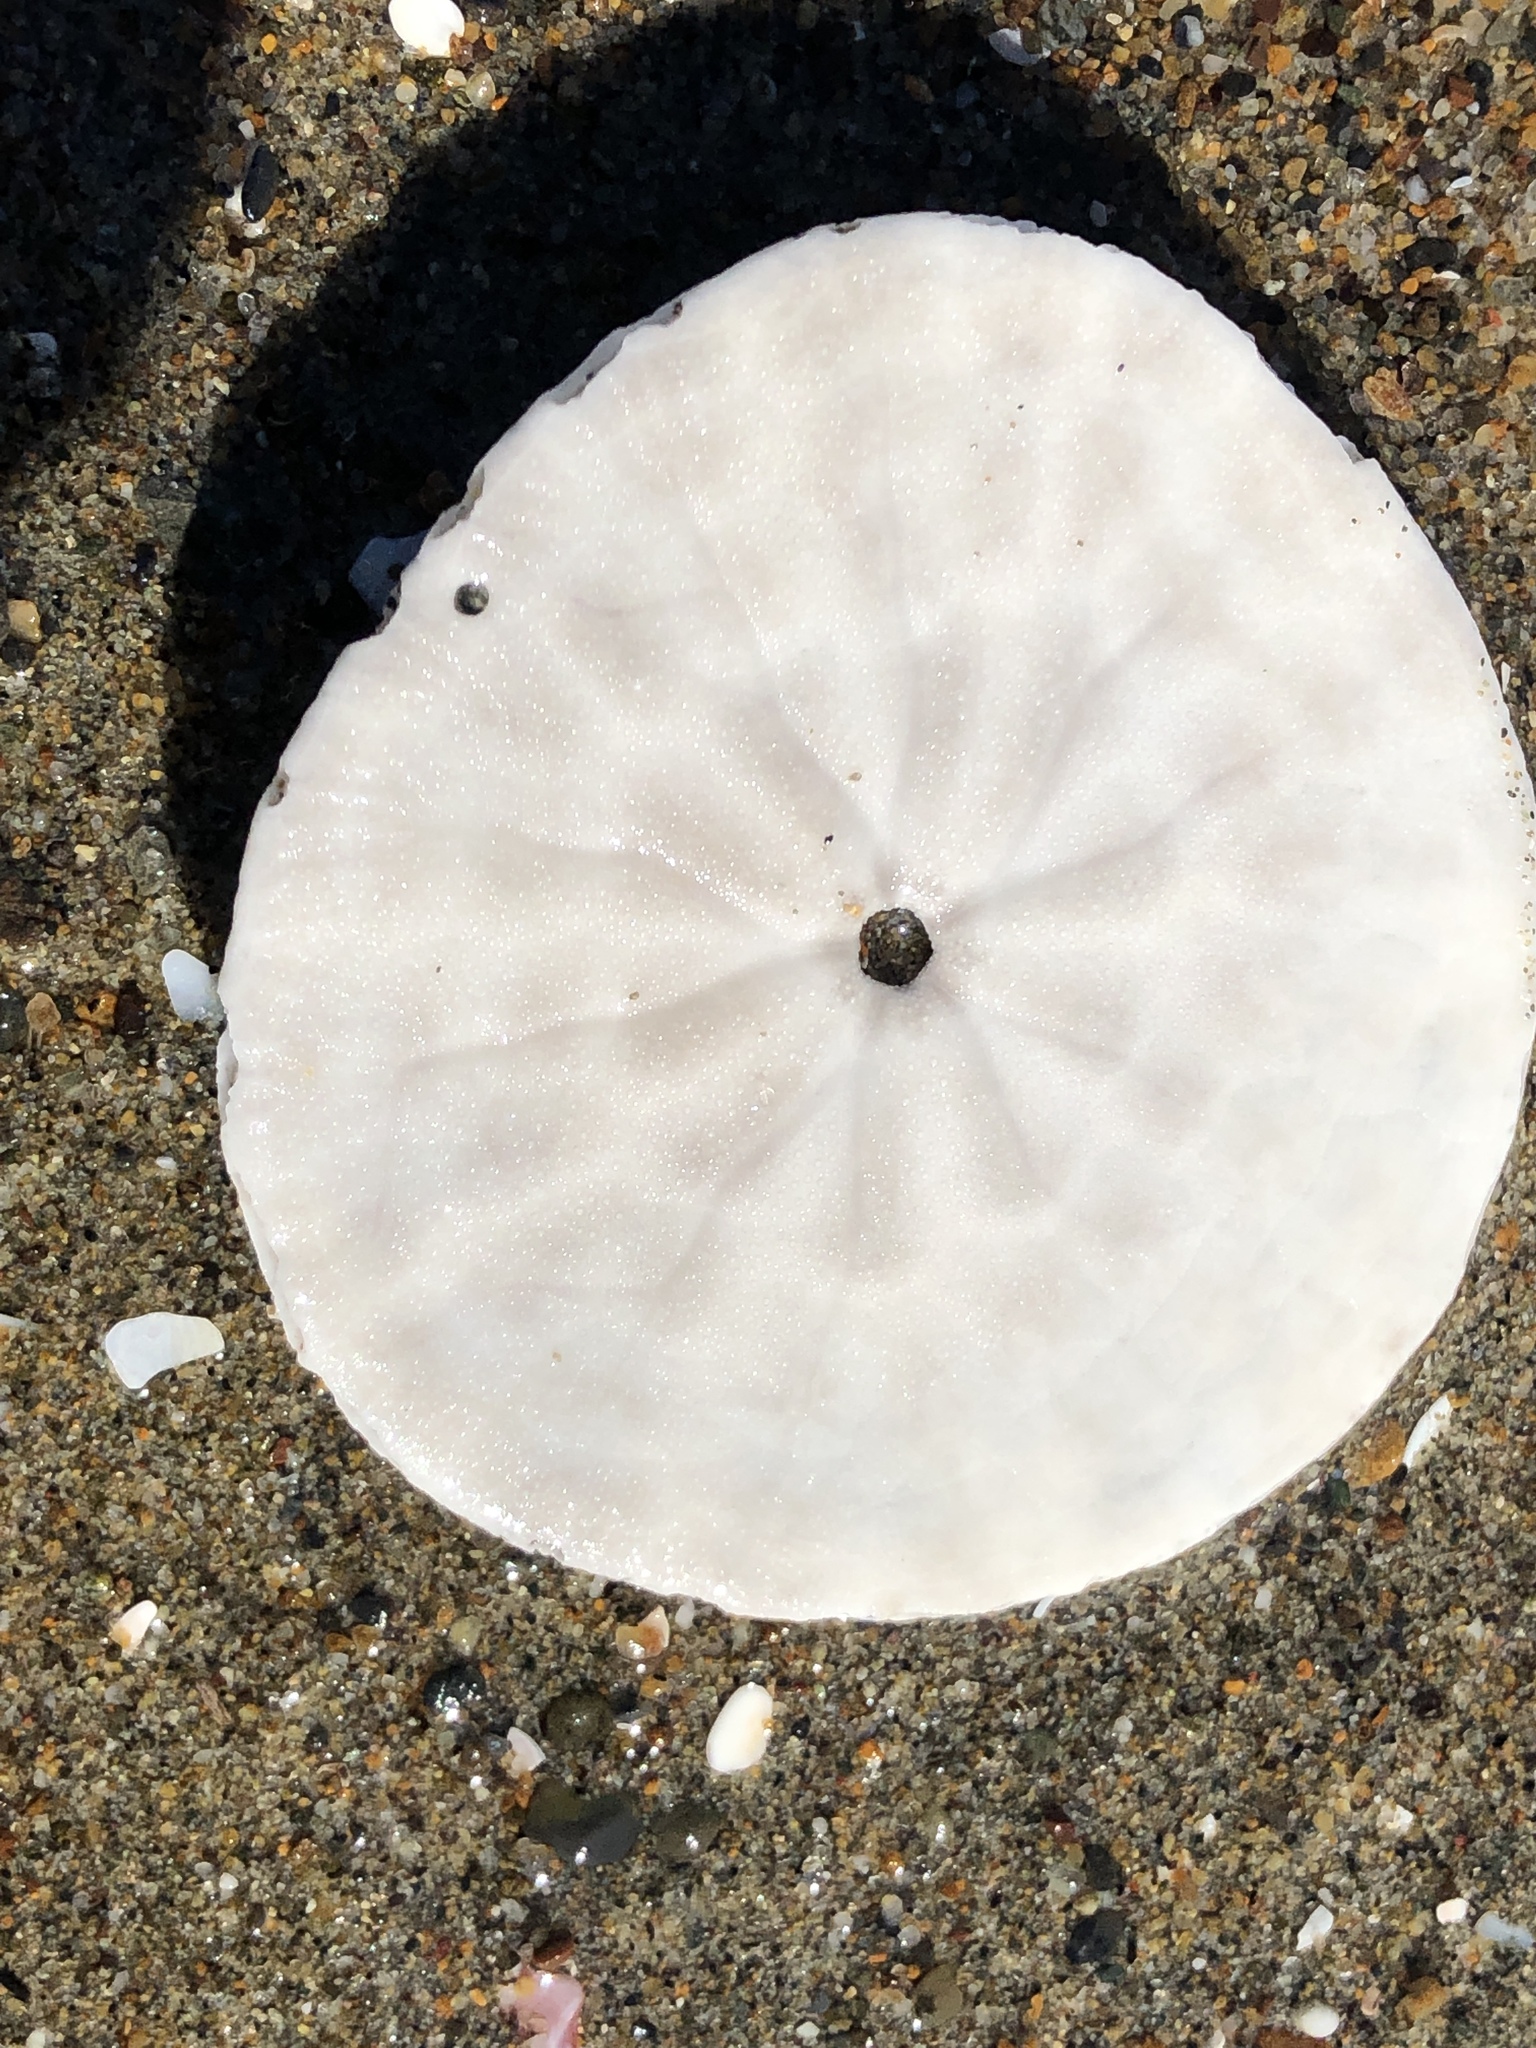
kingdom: Animalia
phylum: Echinodermata
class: Echinoidea
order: Echinolampadacea
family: Dendrasteridae
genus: Dendraster
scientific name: Dendraster excentricus
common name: Eccentric sand dollar sea urchin
